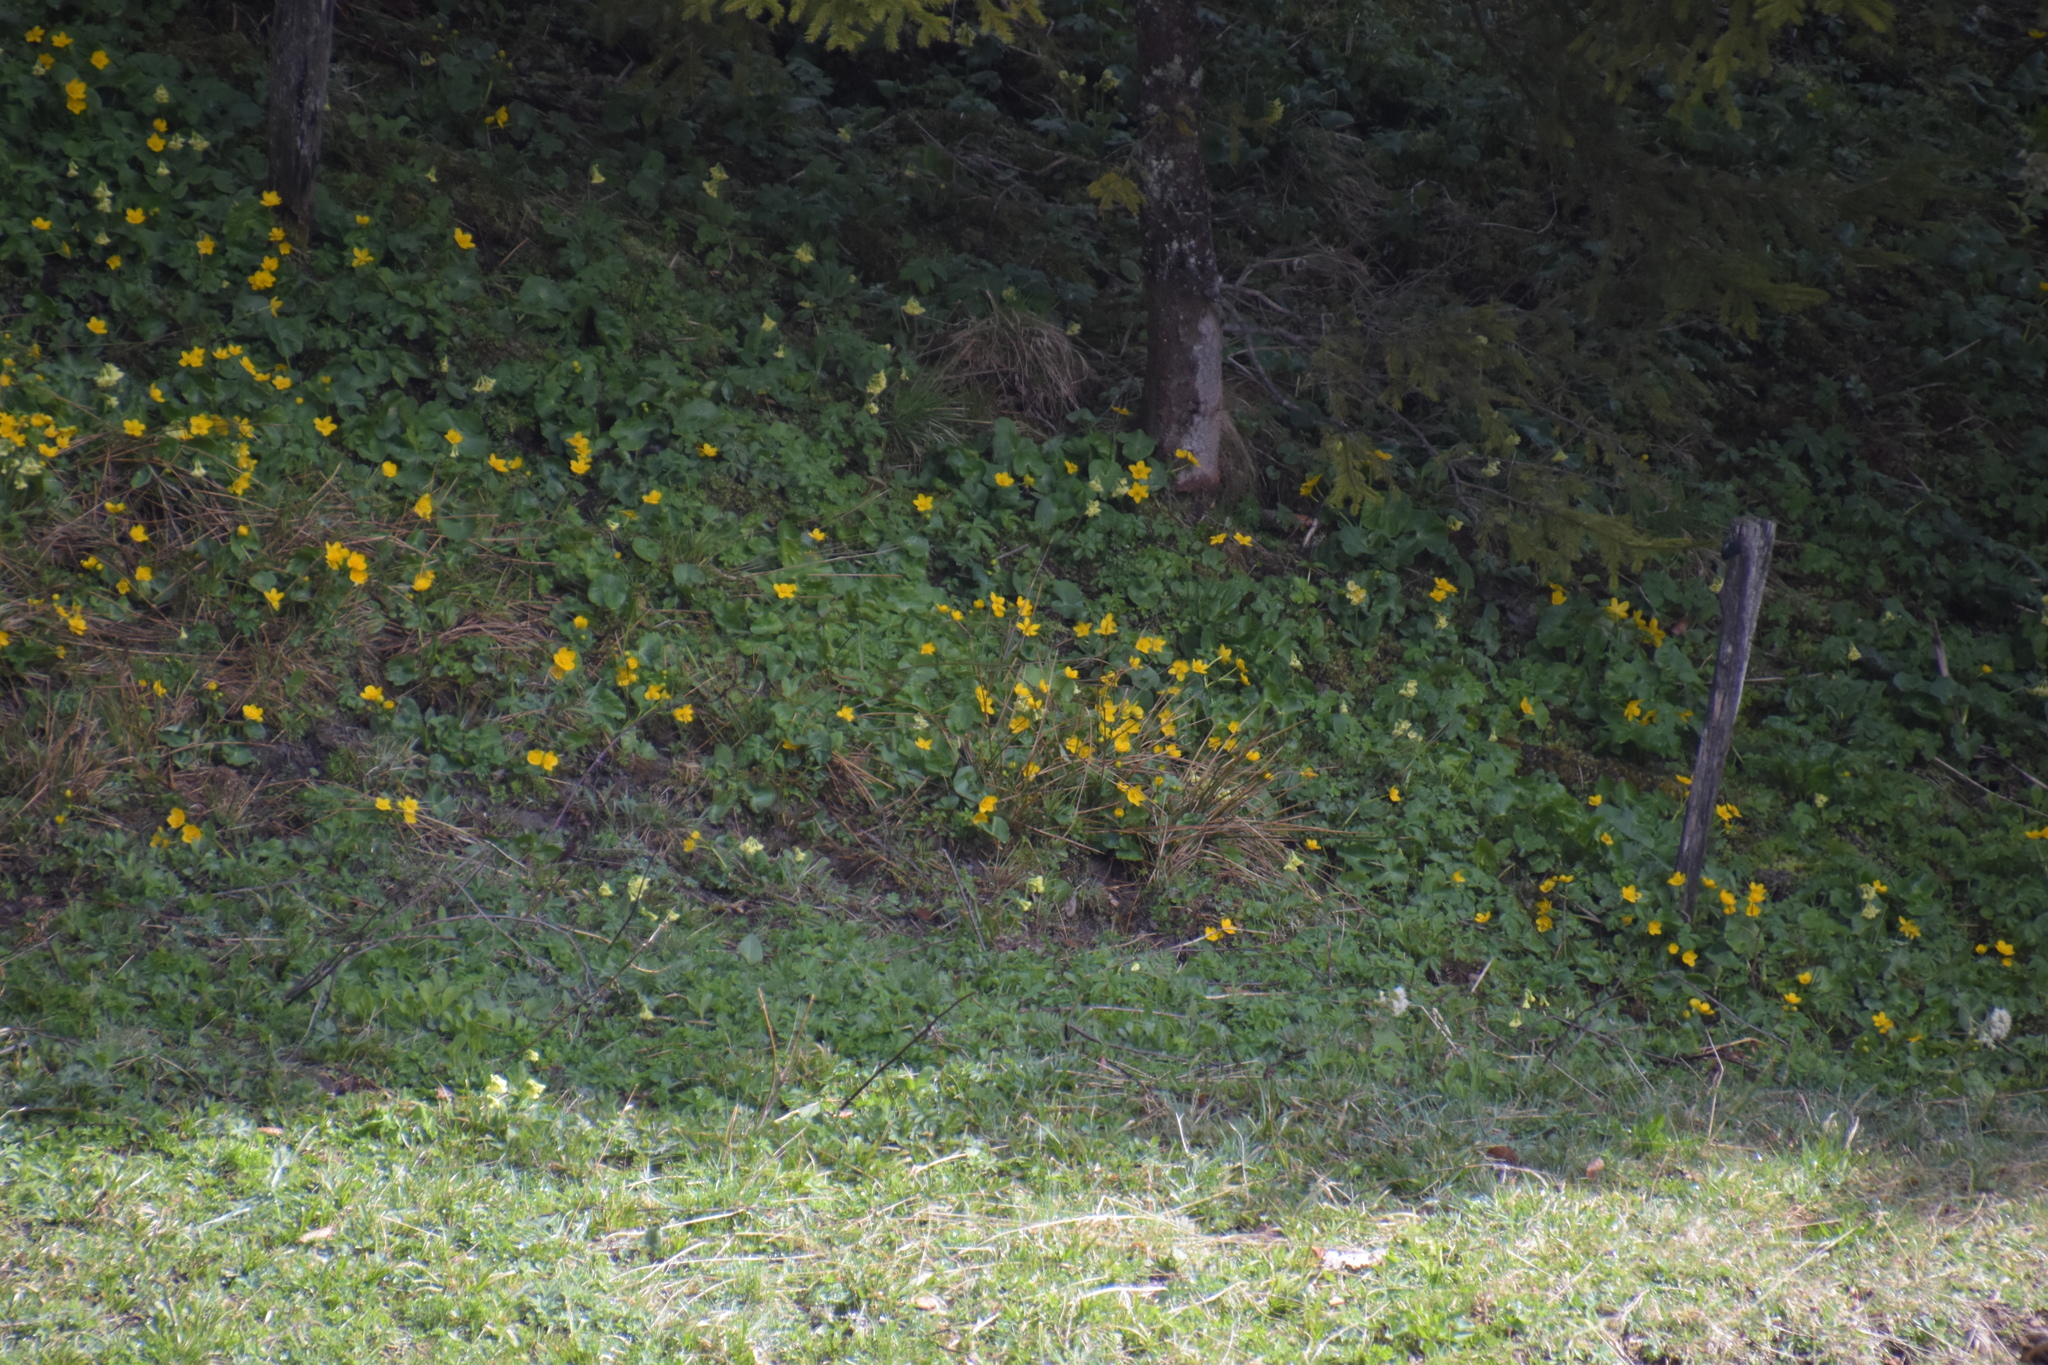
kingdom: Plantae
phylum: Tracheophyta
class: Magnoliopsida
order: Ranunculales
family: Ranunculaceae
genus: Caltha
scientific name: Caltha palustris
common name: Marsh marigold
